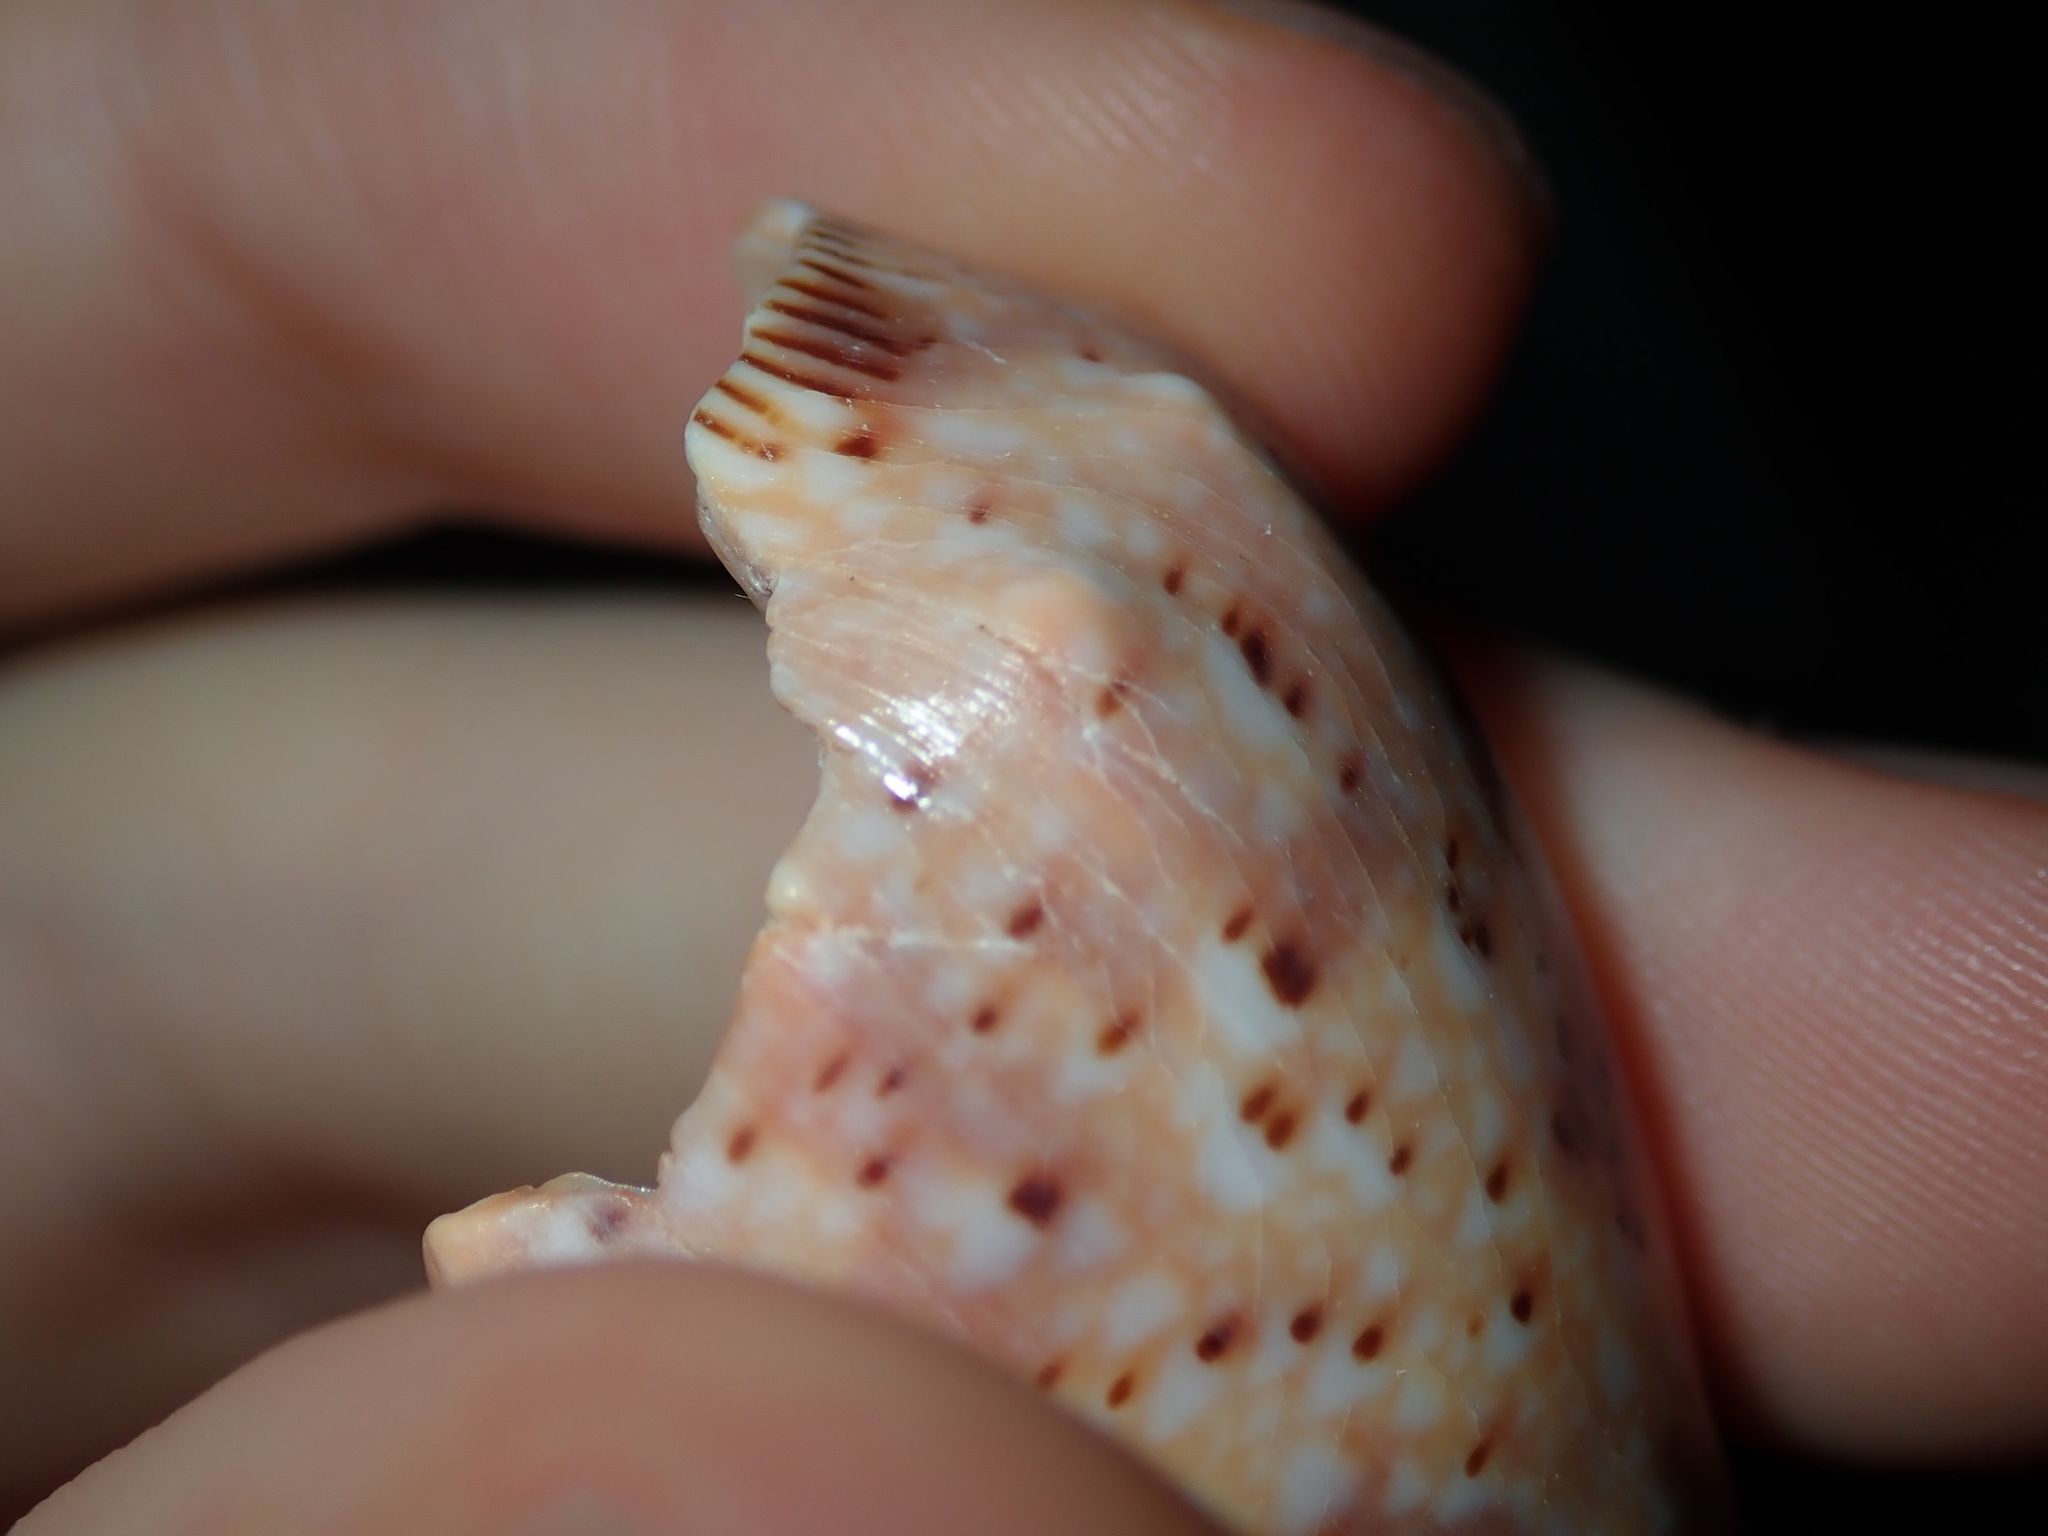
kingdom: Animalia
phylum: Mollusca
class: Gastropoda
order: Neogastropoda
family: Volutidae
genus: Cymbiola
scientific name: Cymbiola complexa
